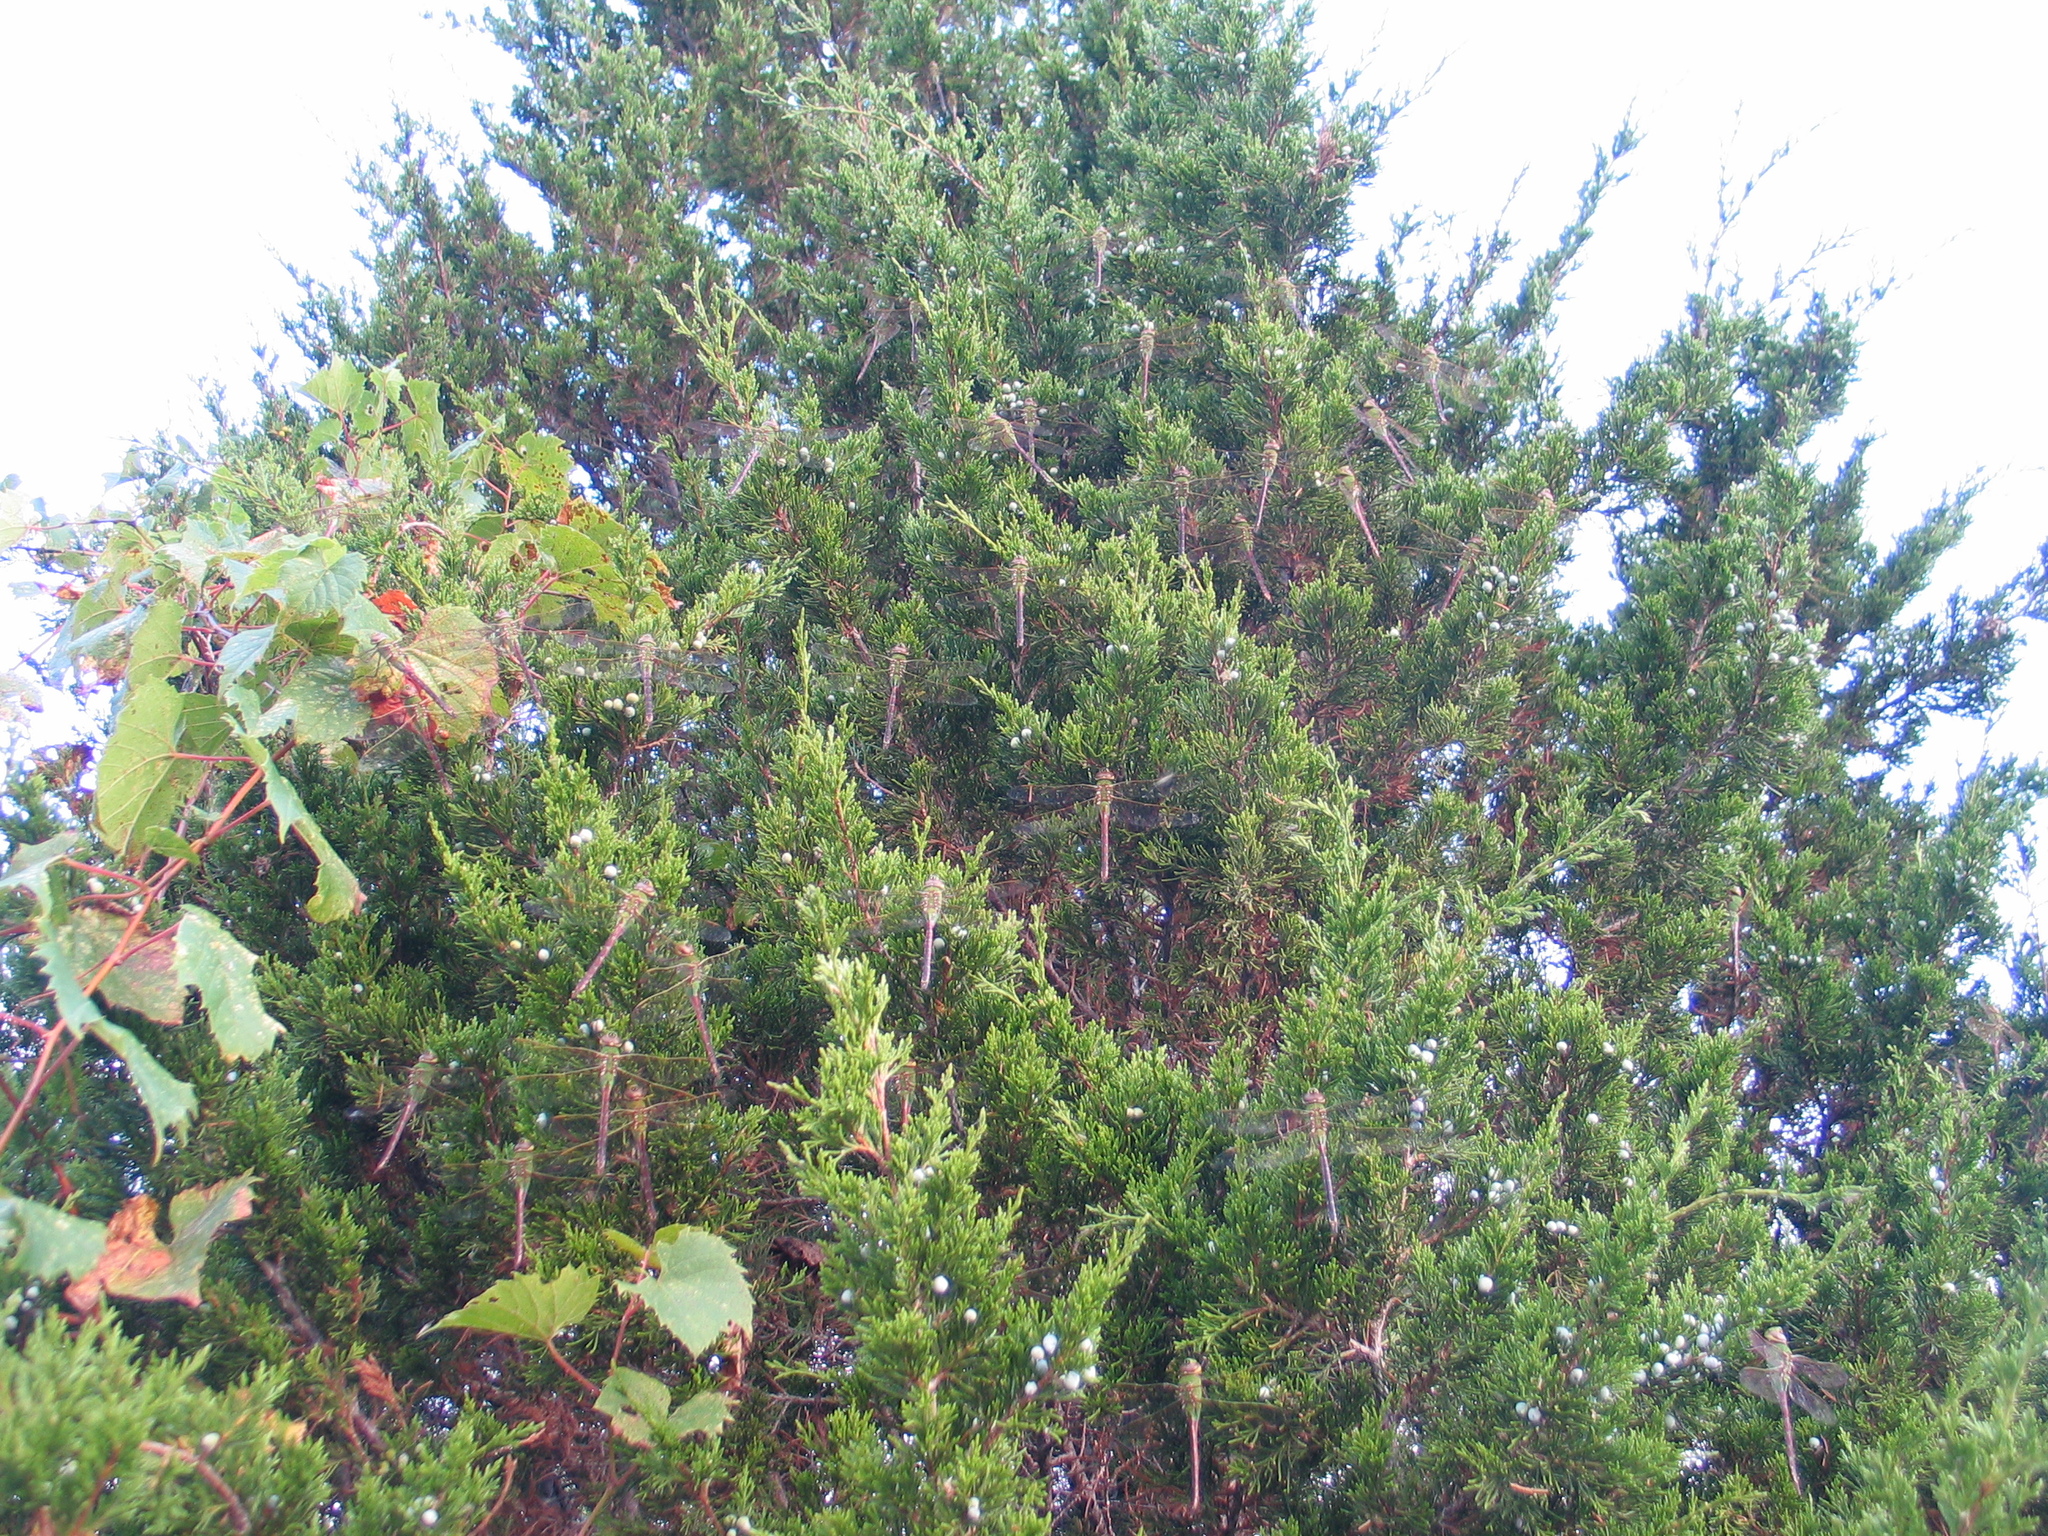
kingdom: Animalia
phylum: Arthropoda
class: Insecta
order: Odonata
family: Aeshnidae
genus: Anax
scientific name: Anax junius
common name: Common green darner
